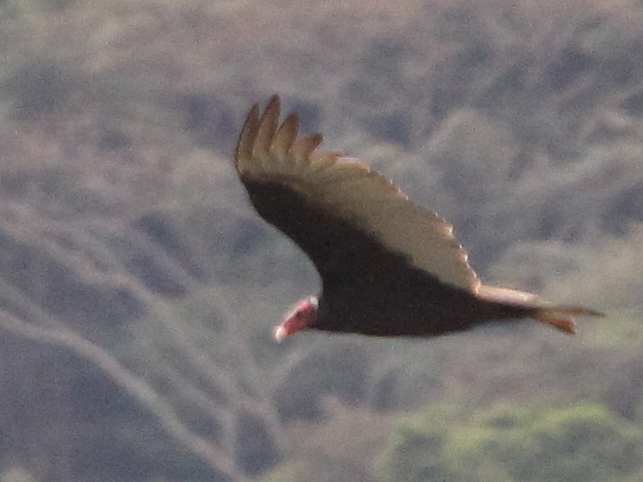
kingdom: Animalia
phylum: Chordata
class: Aves
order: Accipitriformes
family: Cathartidae
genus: Cathartes
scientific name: Cathartes aura
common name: Turkey vulture
